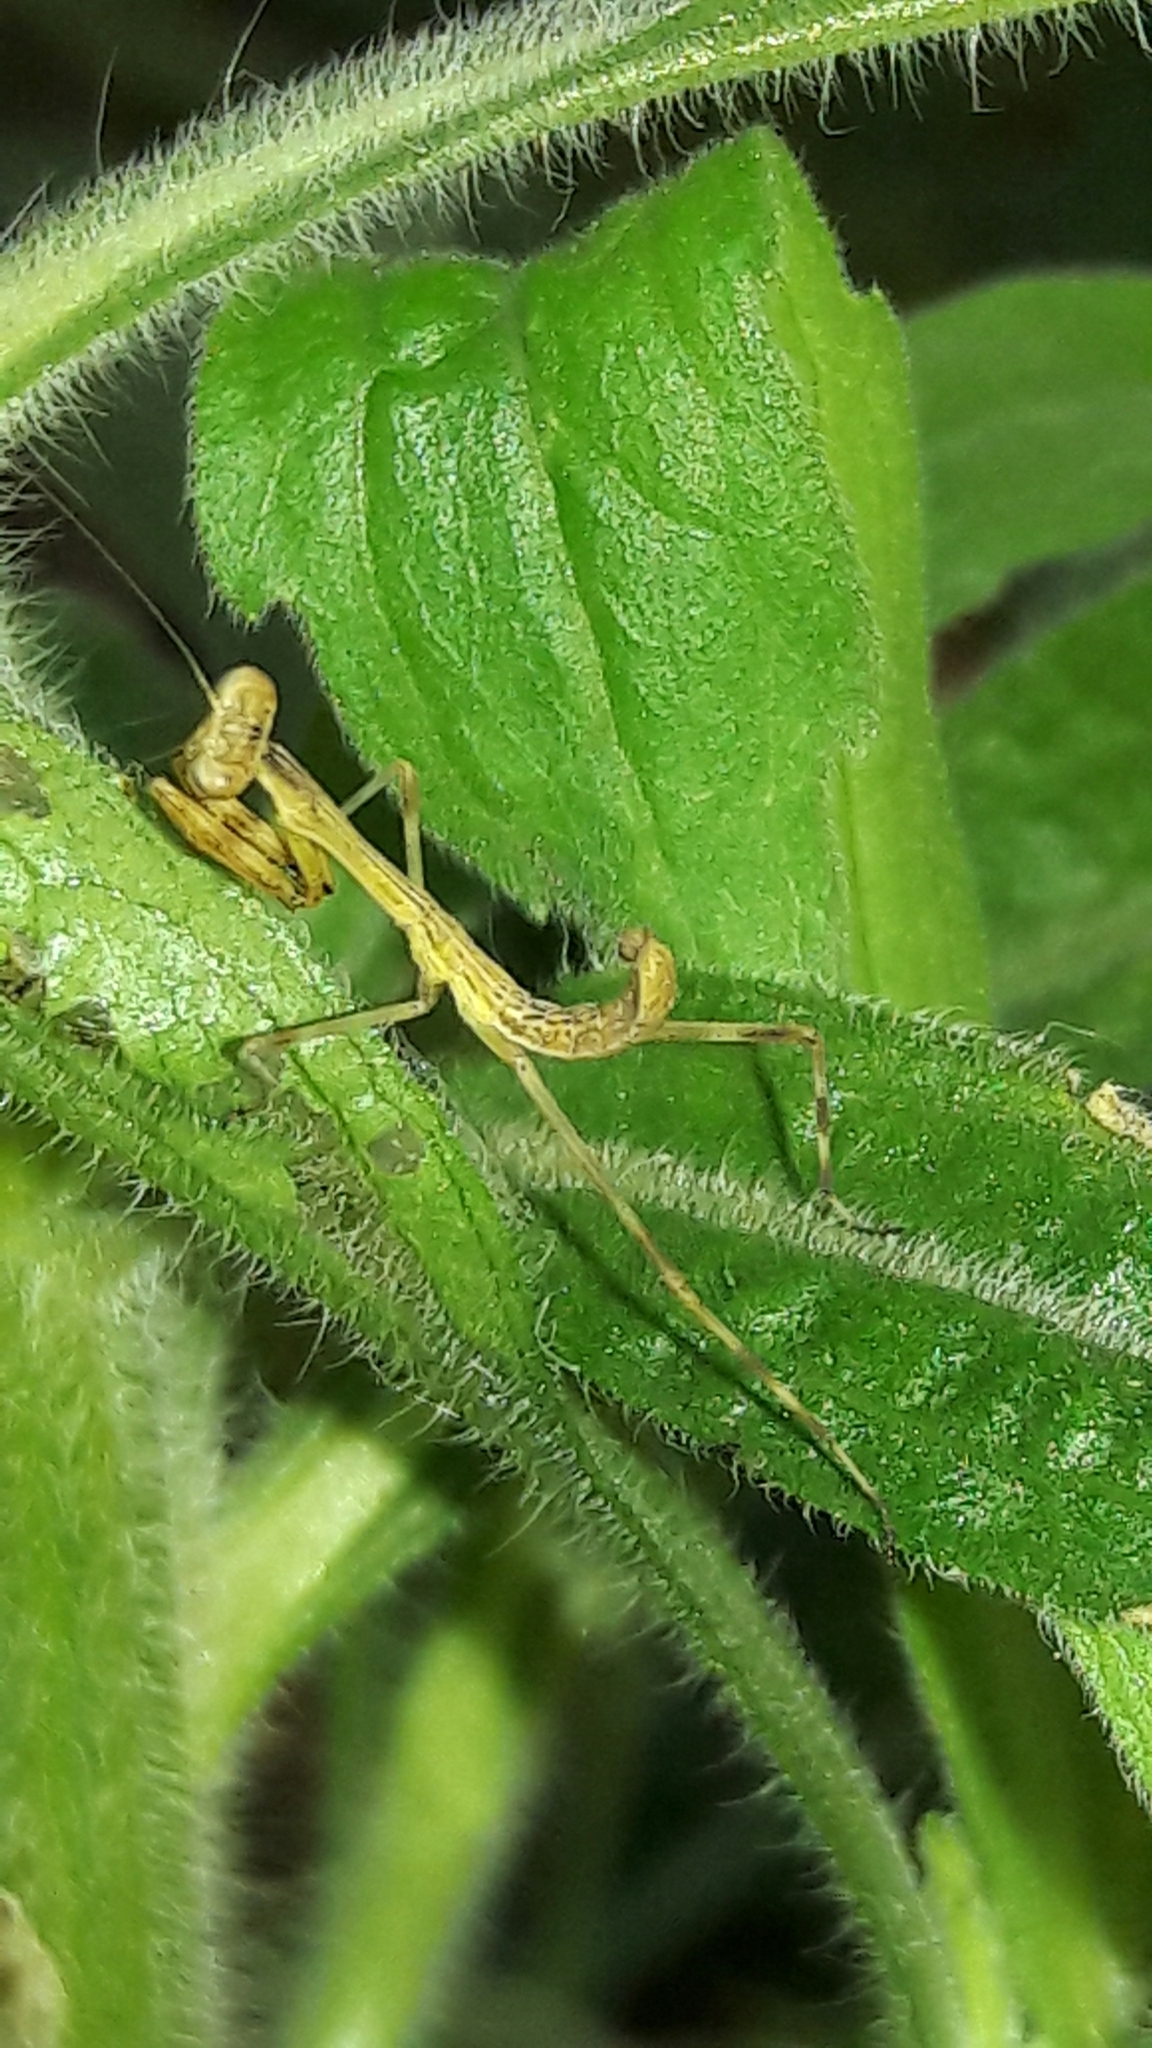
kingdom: Animalia
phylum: Arthropoda
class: Insecta
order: Mantodea
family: Mantidae
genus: Stagmatoptera
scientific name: Stagmatoptera
